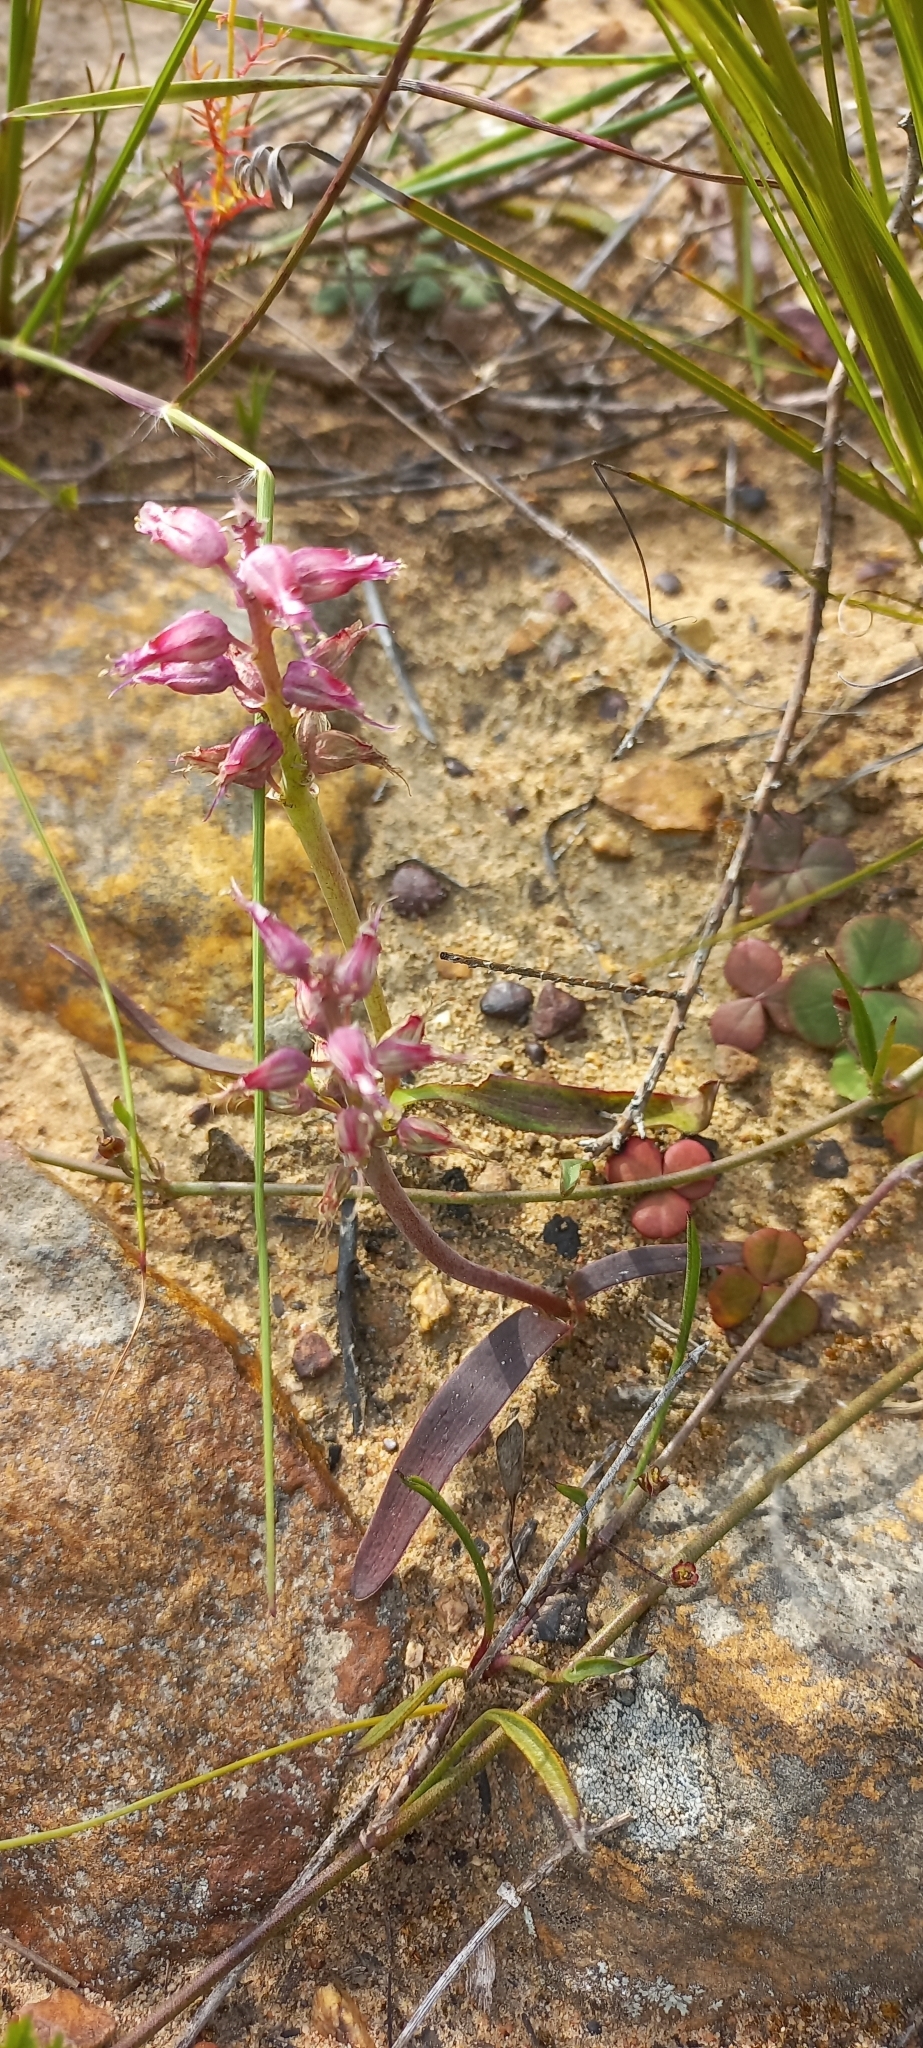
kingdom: Plantae
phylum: Tracheophyta
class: Liliopsida
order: Asparagales
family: Asparagaceae
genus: Lachenalia
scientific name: Lachenalia stayneri
